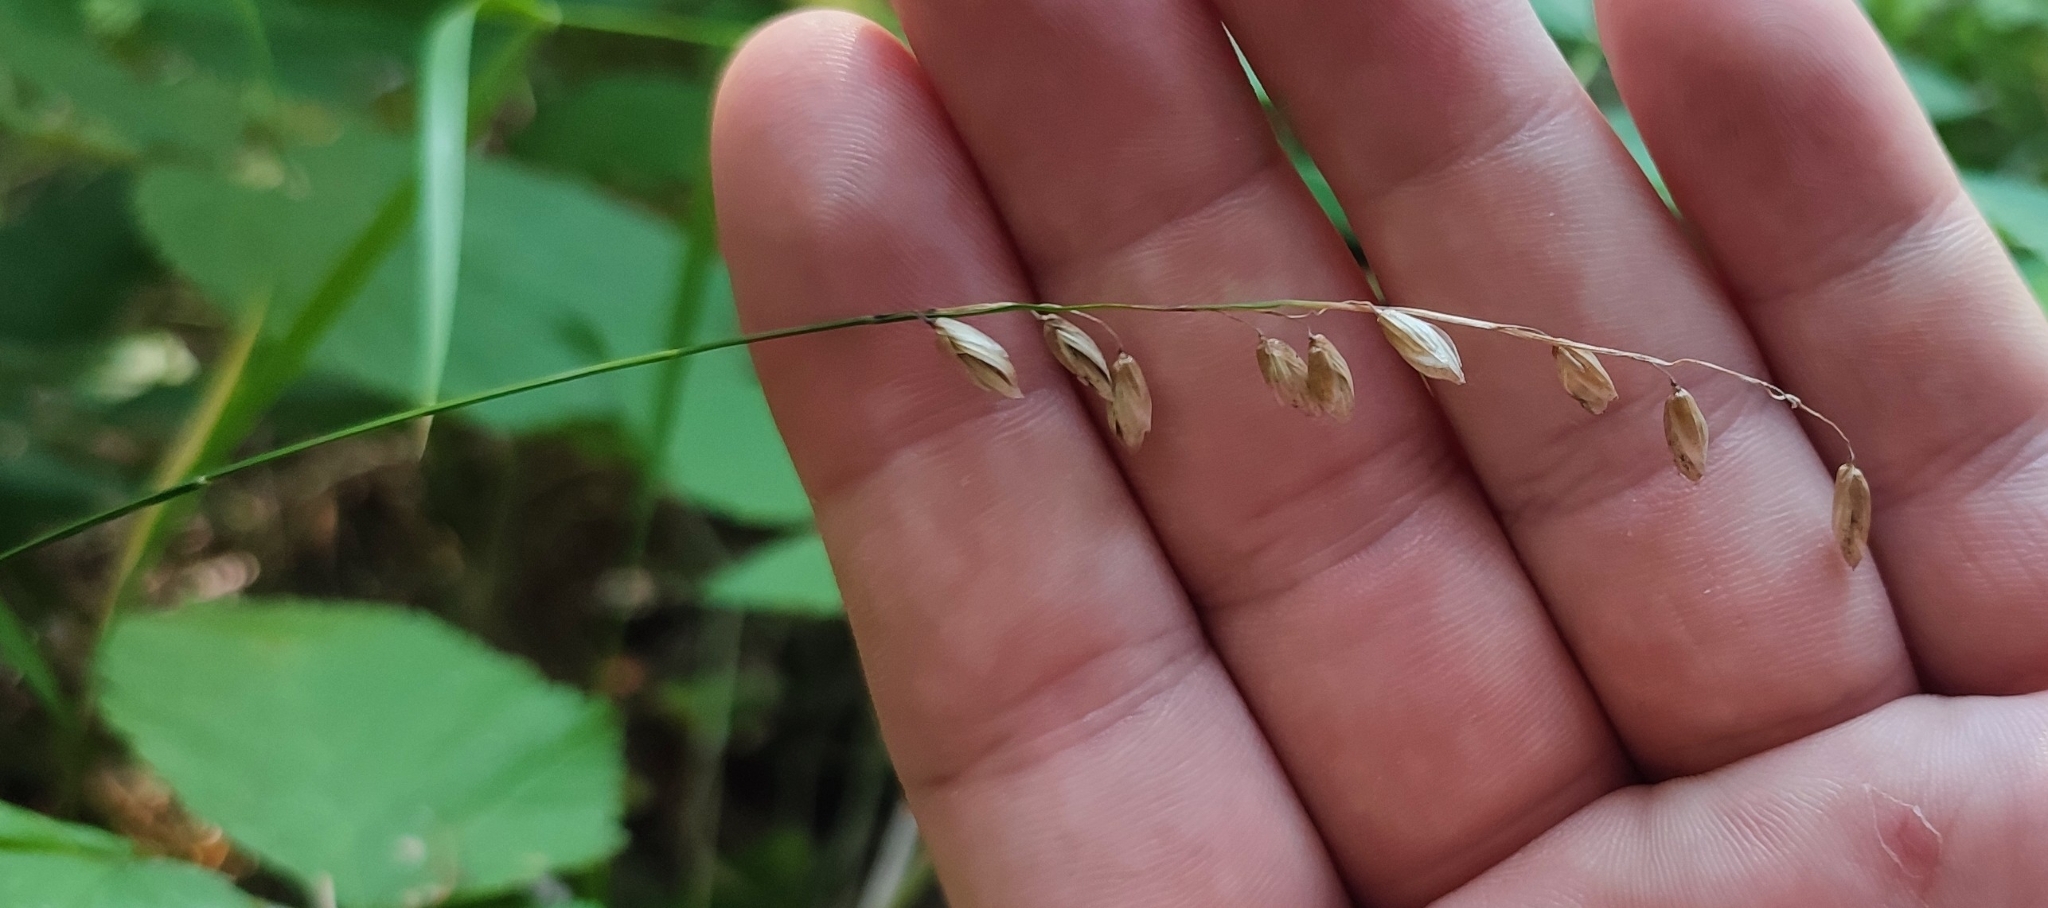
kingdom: Plantae
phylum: Tracheophyta
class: Liliopsida
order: Poales
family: Poaceae
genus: Melica
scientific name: Melica nutans
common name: Mountain melick
